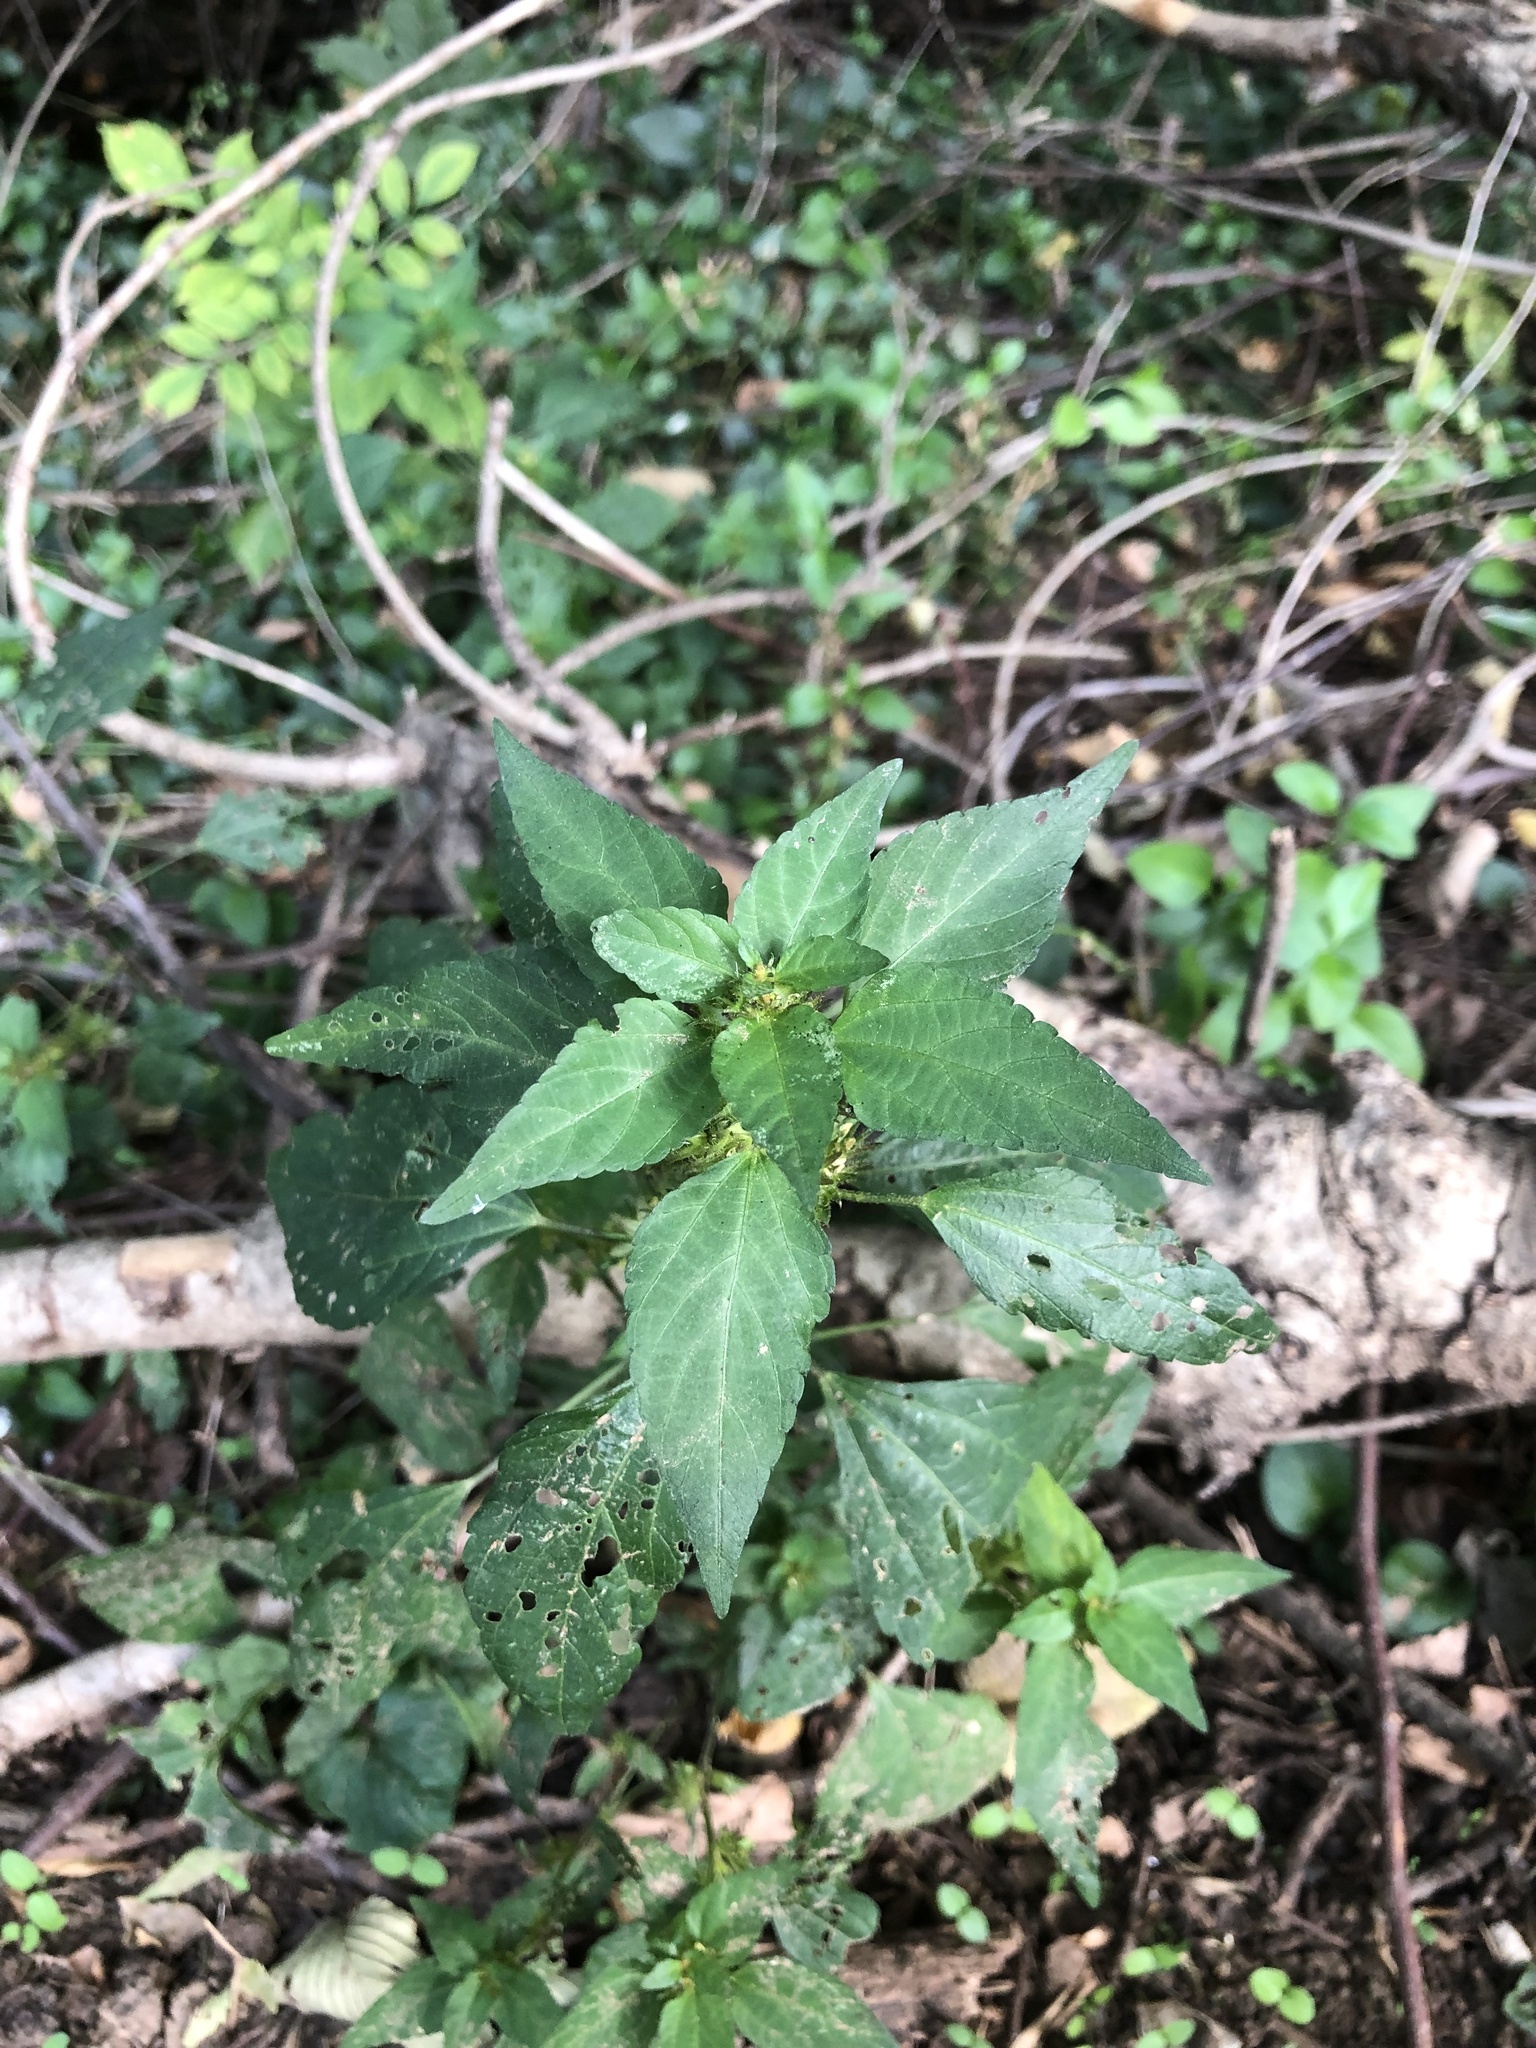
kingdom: Plantae
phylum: Tracheophyta
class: Magnoliopsida
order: Malpighiales
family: Euphorbiaceae
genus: Acalypha
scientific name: Acalypha rhomboidea
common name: Rhombic copperleaf
